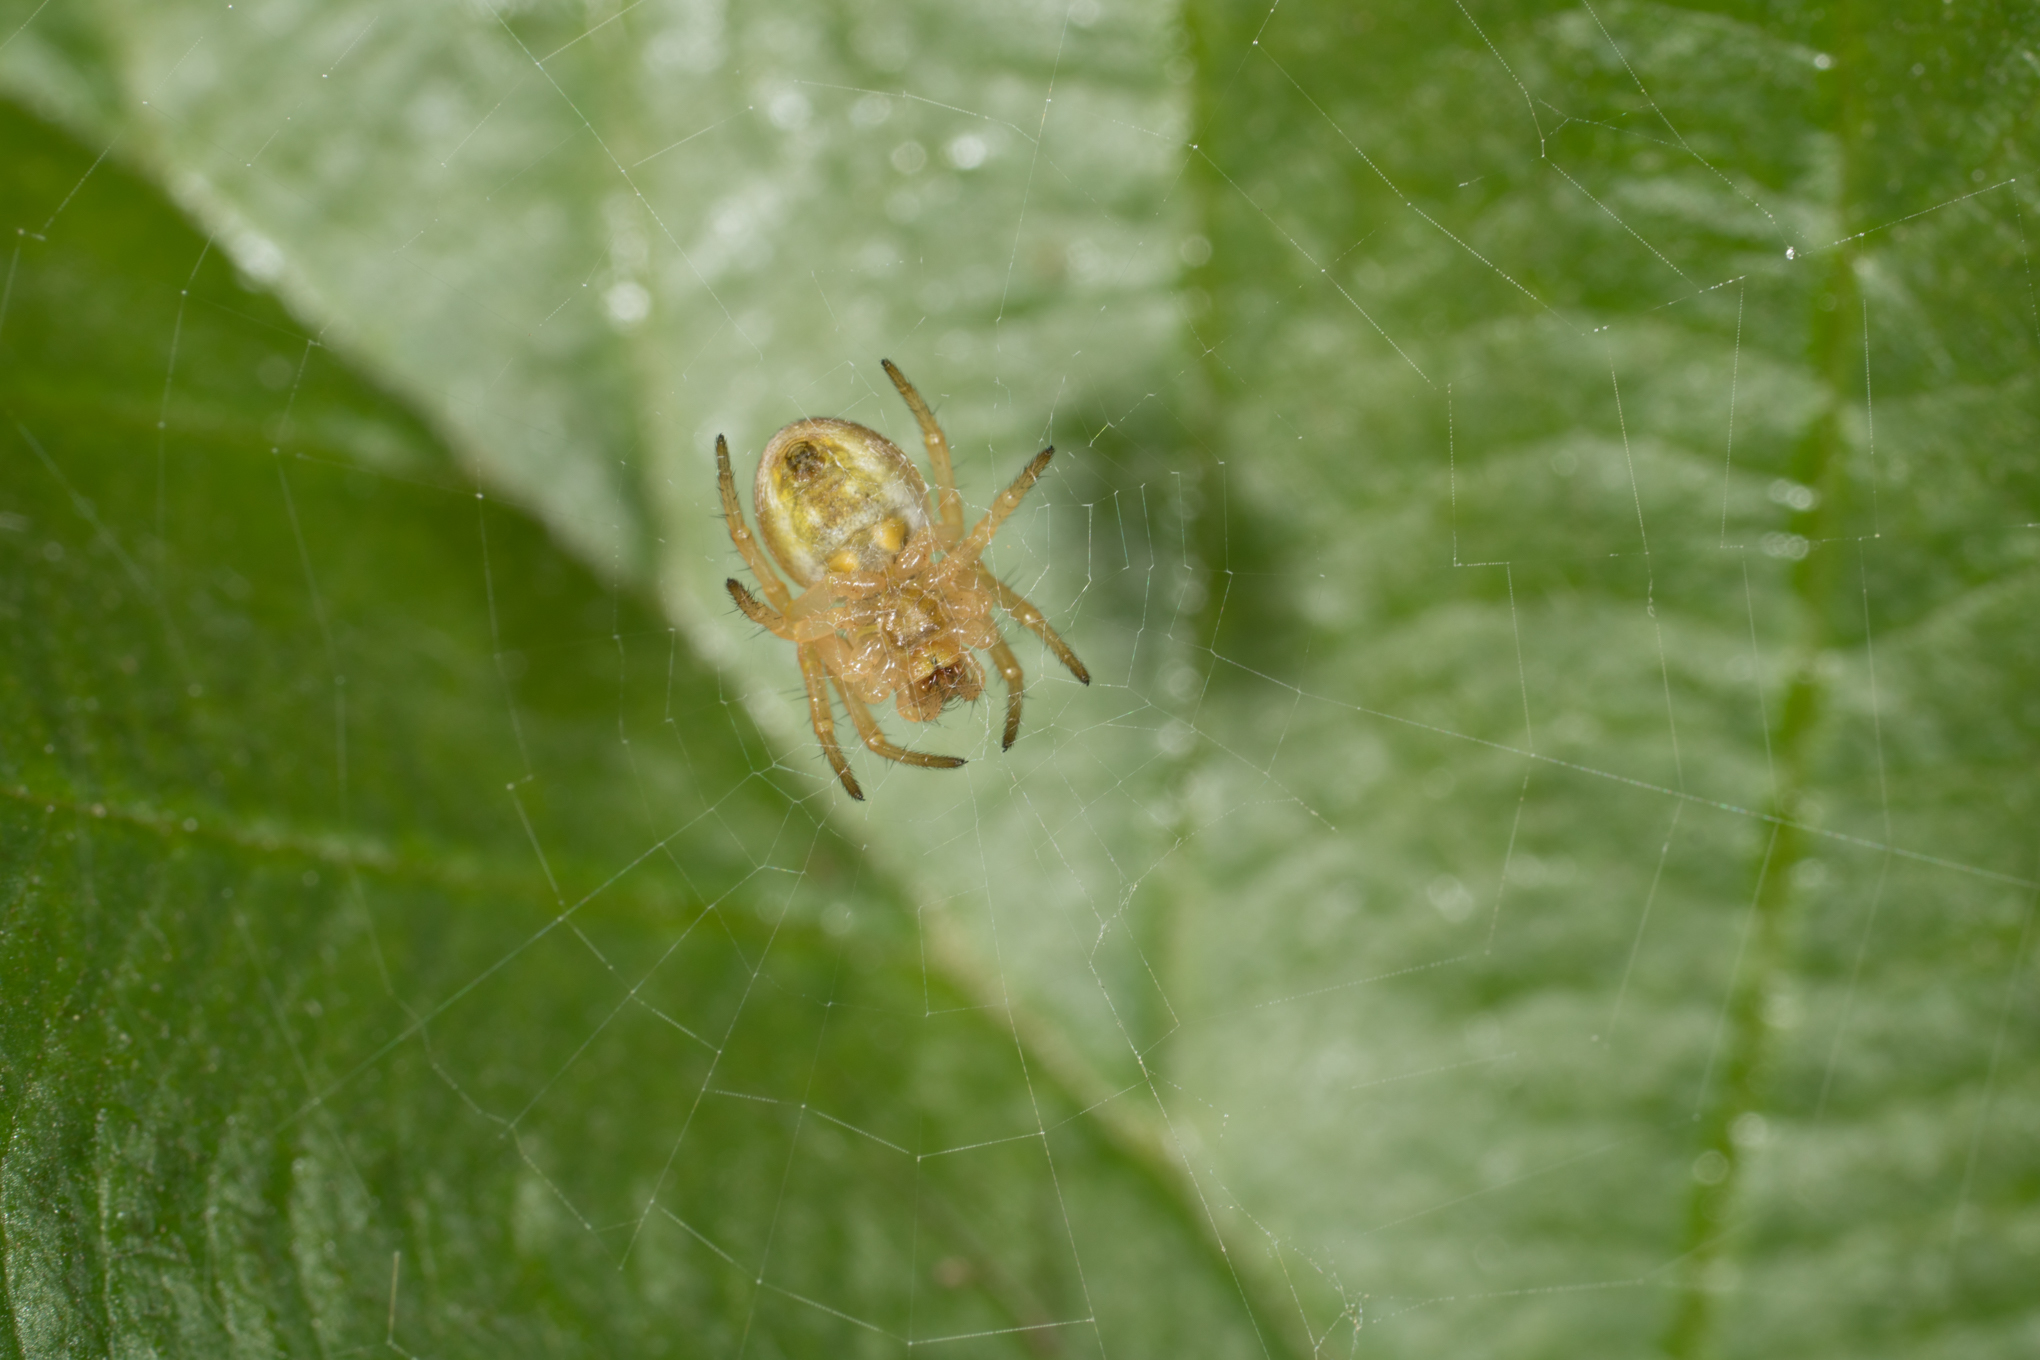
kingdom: Animalia
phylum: Arthropoda
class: Arachnida
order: Araneae
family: Araneidae
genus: Araniella
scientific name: Araniella displicata
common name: Sixspotted orb weaver
